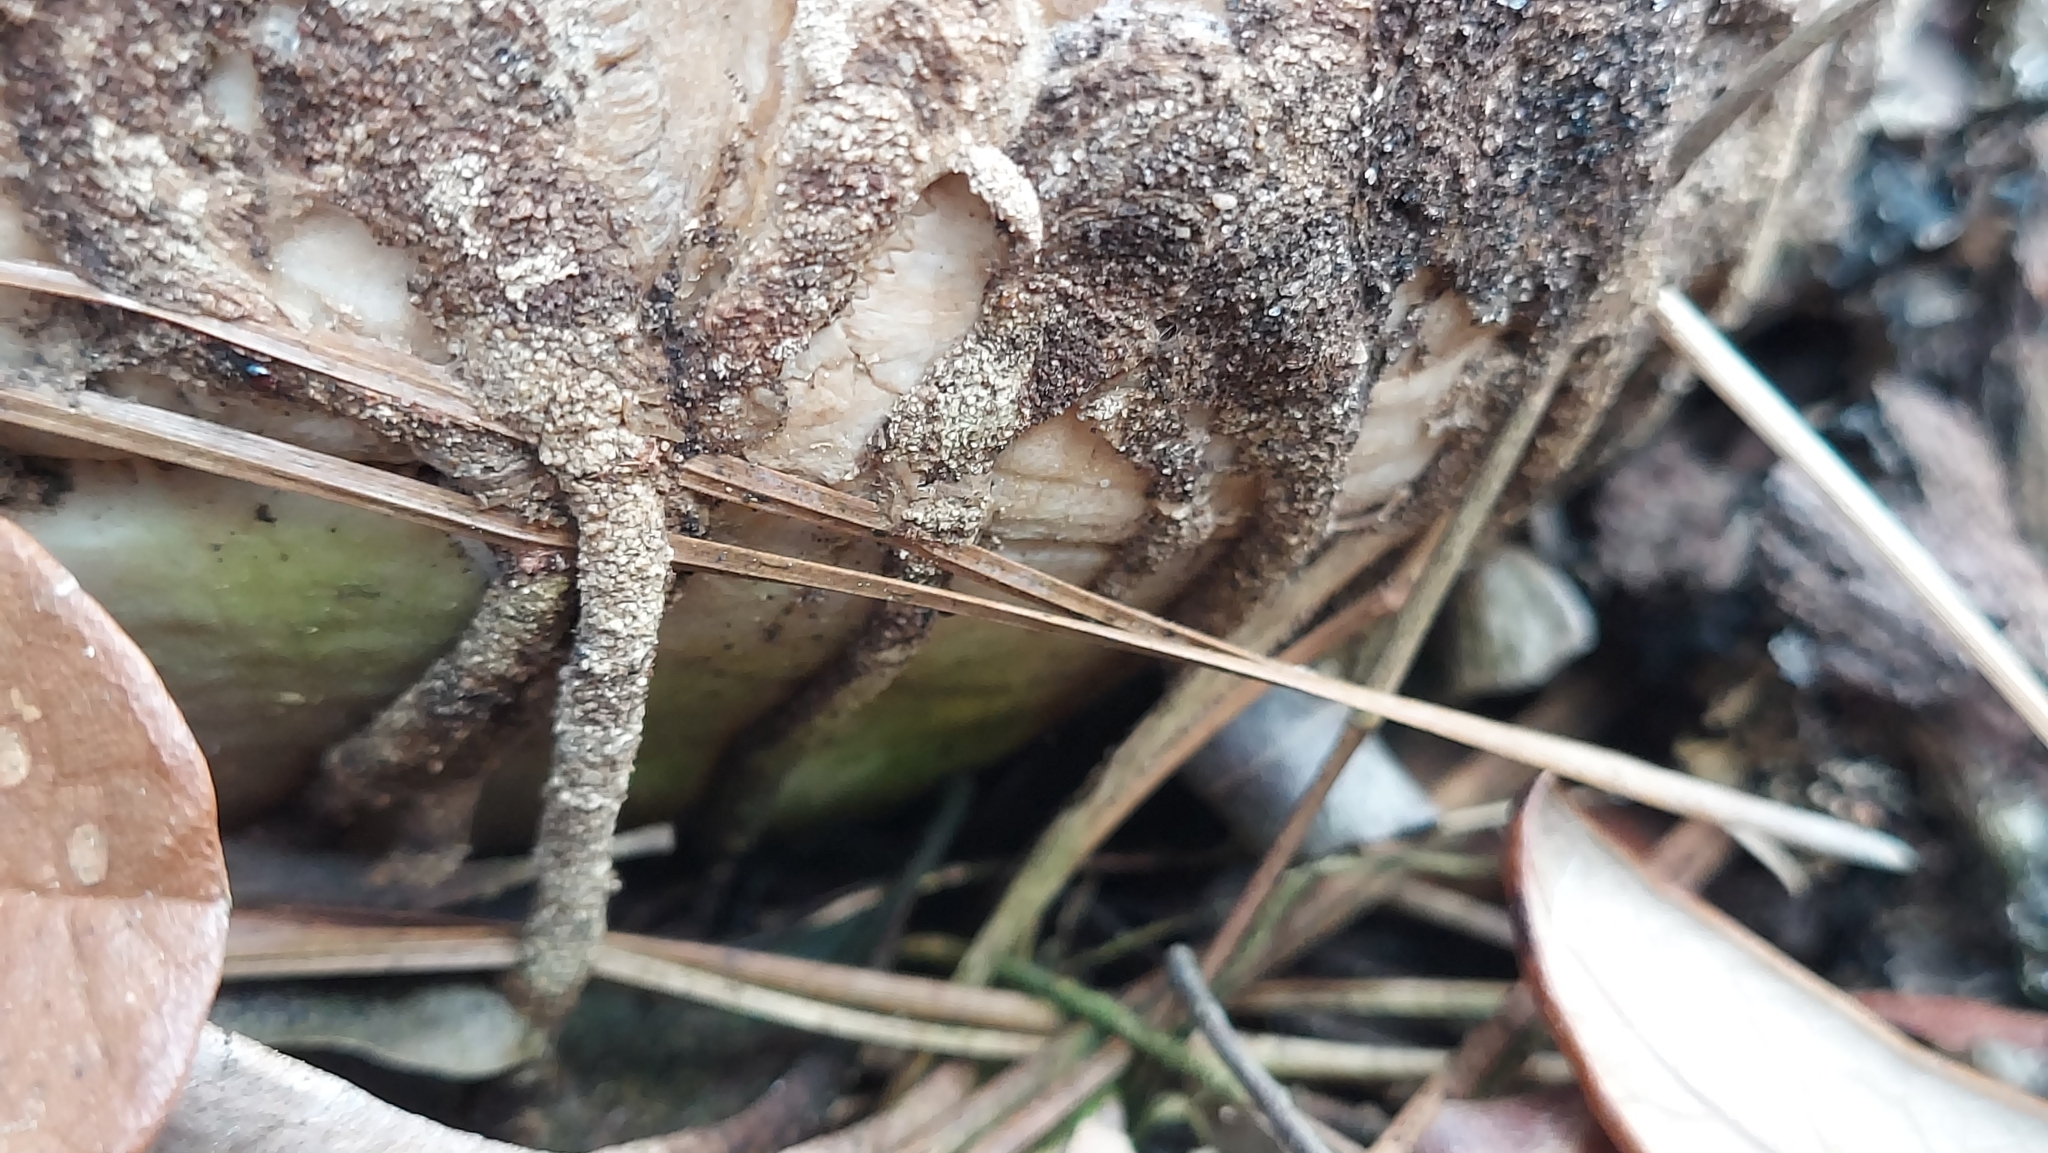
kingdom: Animalia
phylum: Arthropoda
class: Insecta
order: Lepidoptera
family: Tineidae
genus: Ceratophaga
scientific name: Ceratophaga vicinella
